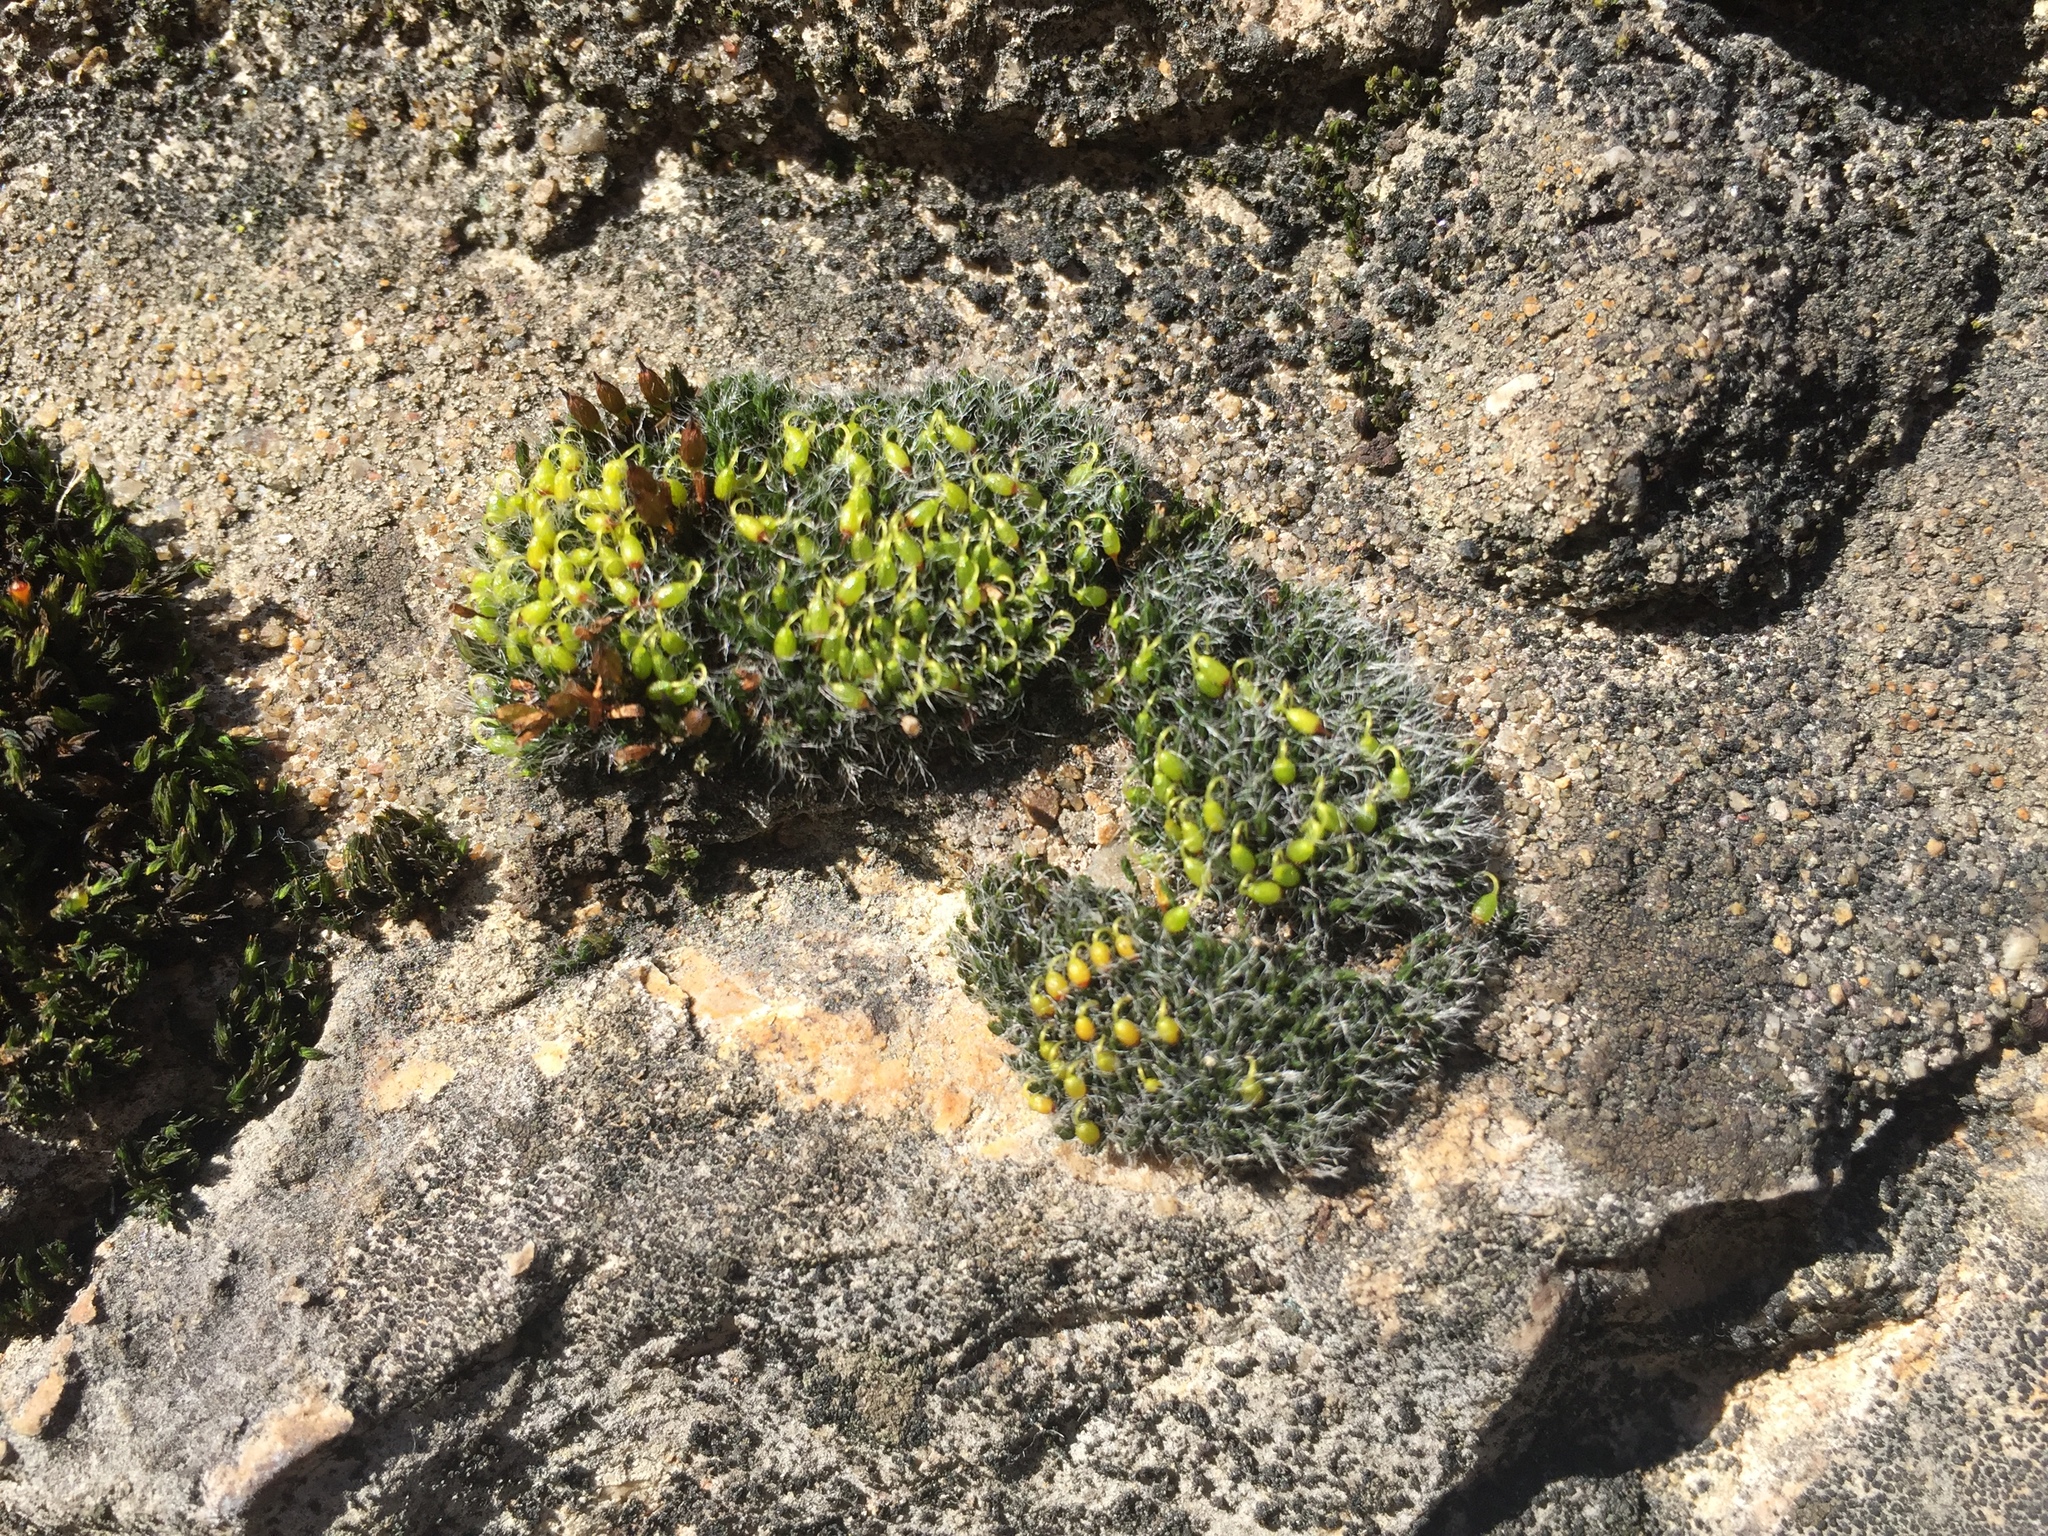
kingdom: Plantae
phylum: Bryophyta
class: Bryopsida
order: Grimmiales
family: Grimmiaceae
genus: Grimmia
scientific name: Grimmia pulvinata
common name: Grey-cushioned grimmia
